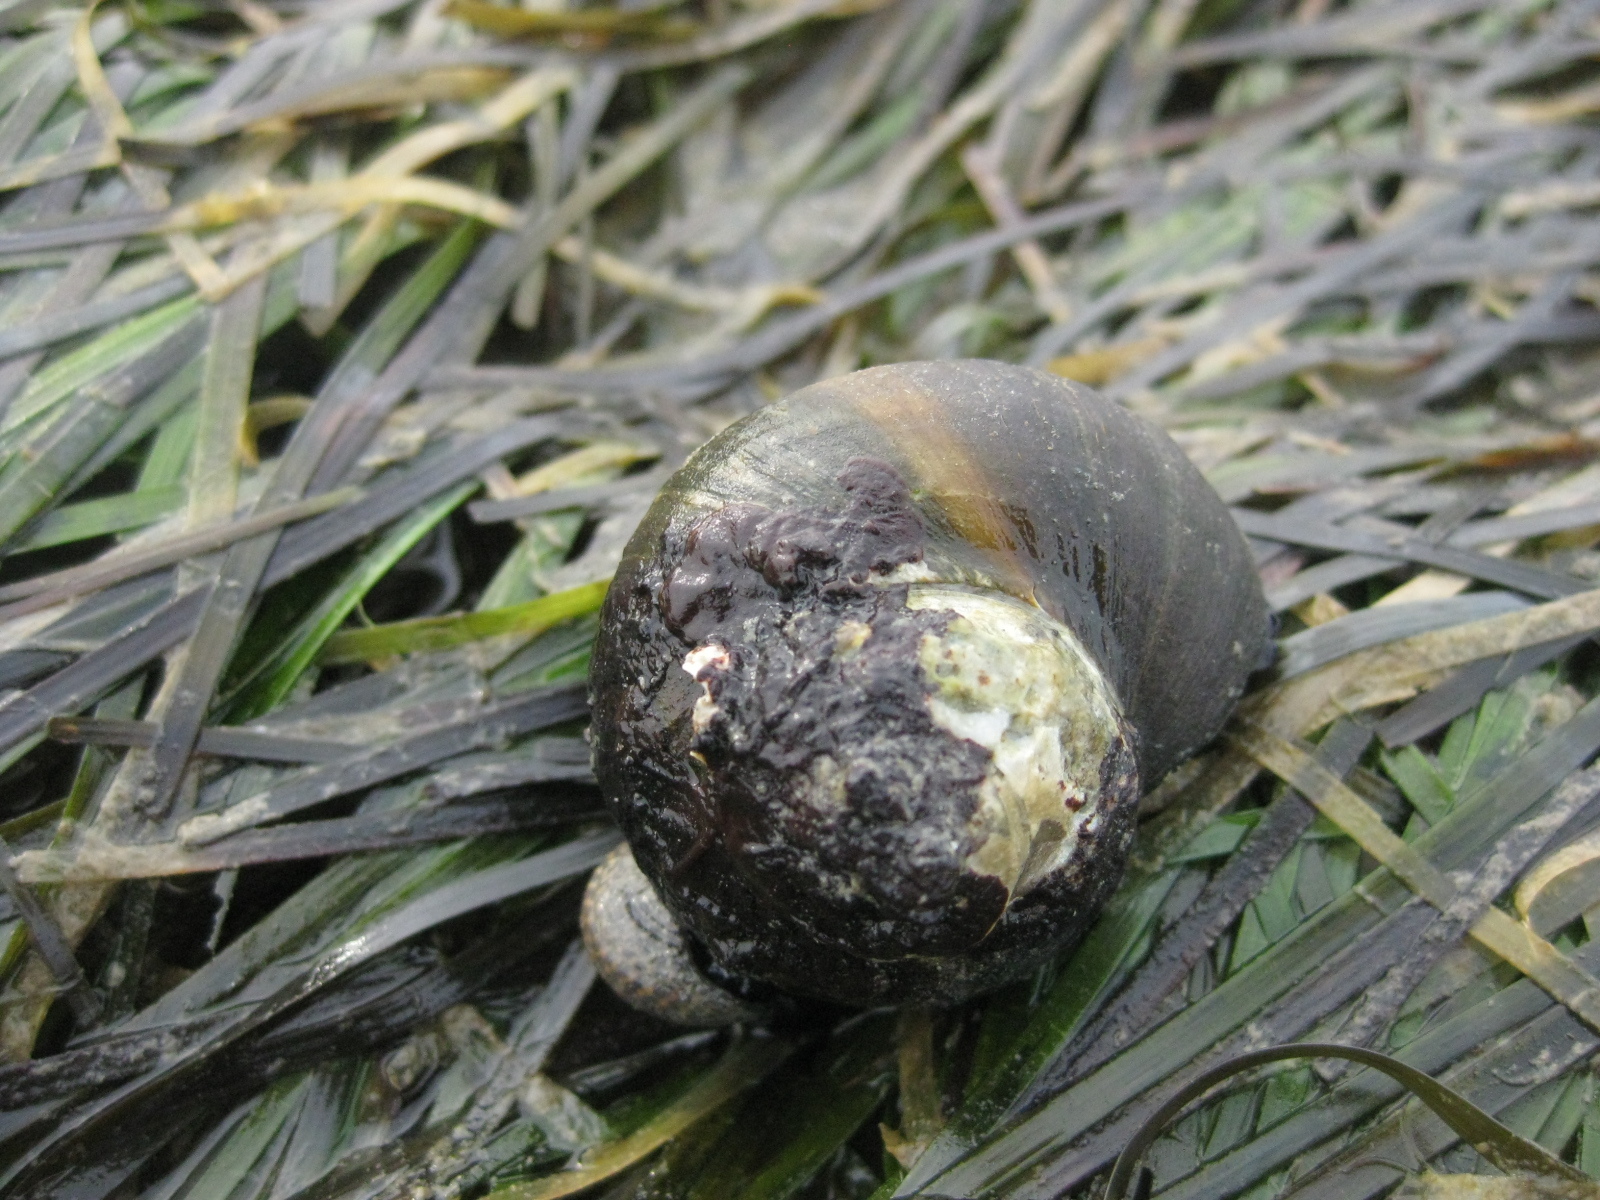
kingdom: Animalia
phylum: Mollusca
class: Gastropoda
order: Trochida
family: Turbinidae
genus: Lunella
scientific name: Lunella smaragda
